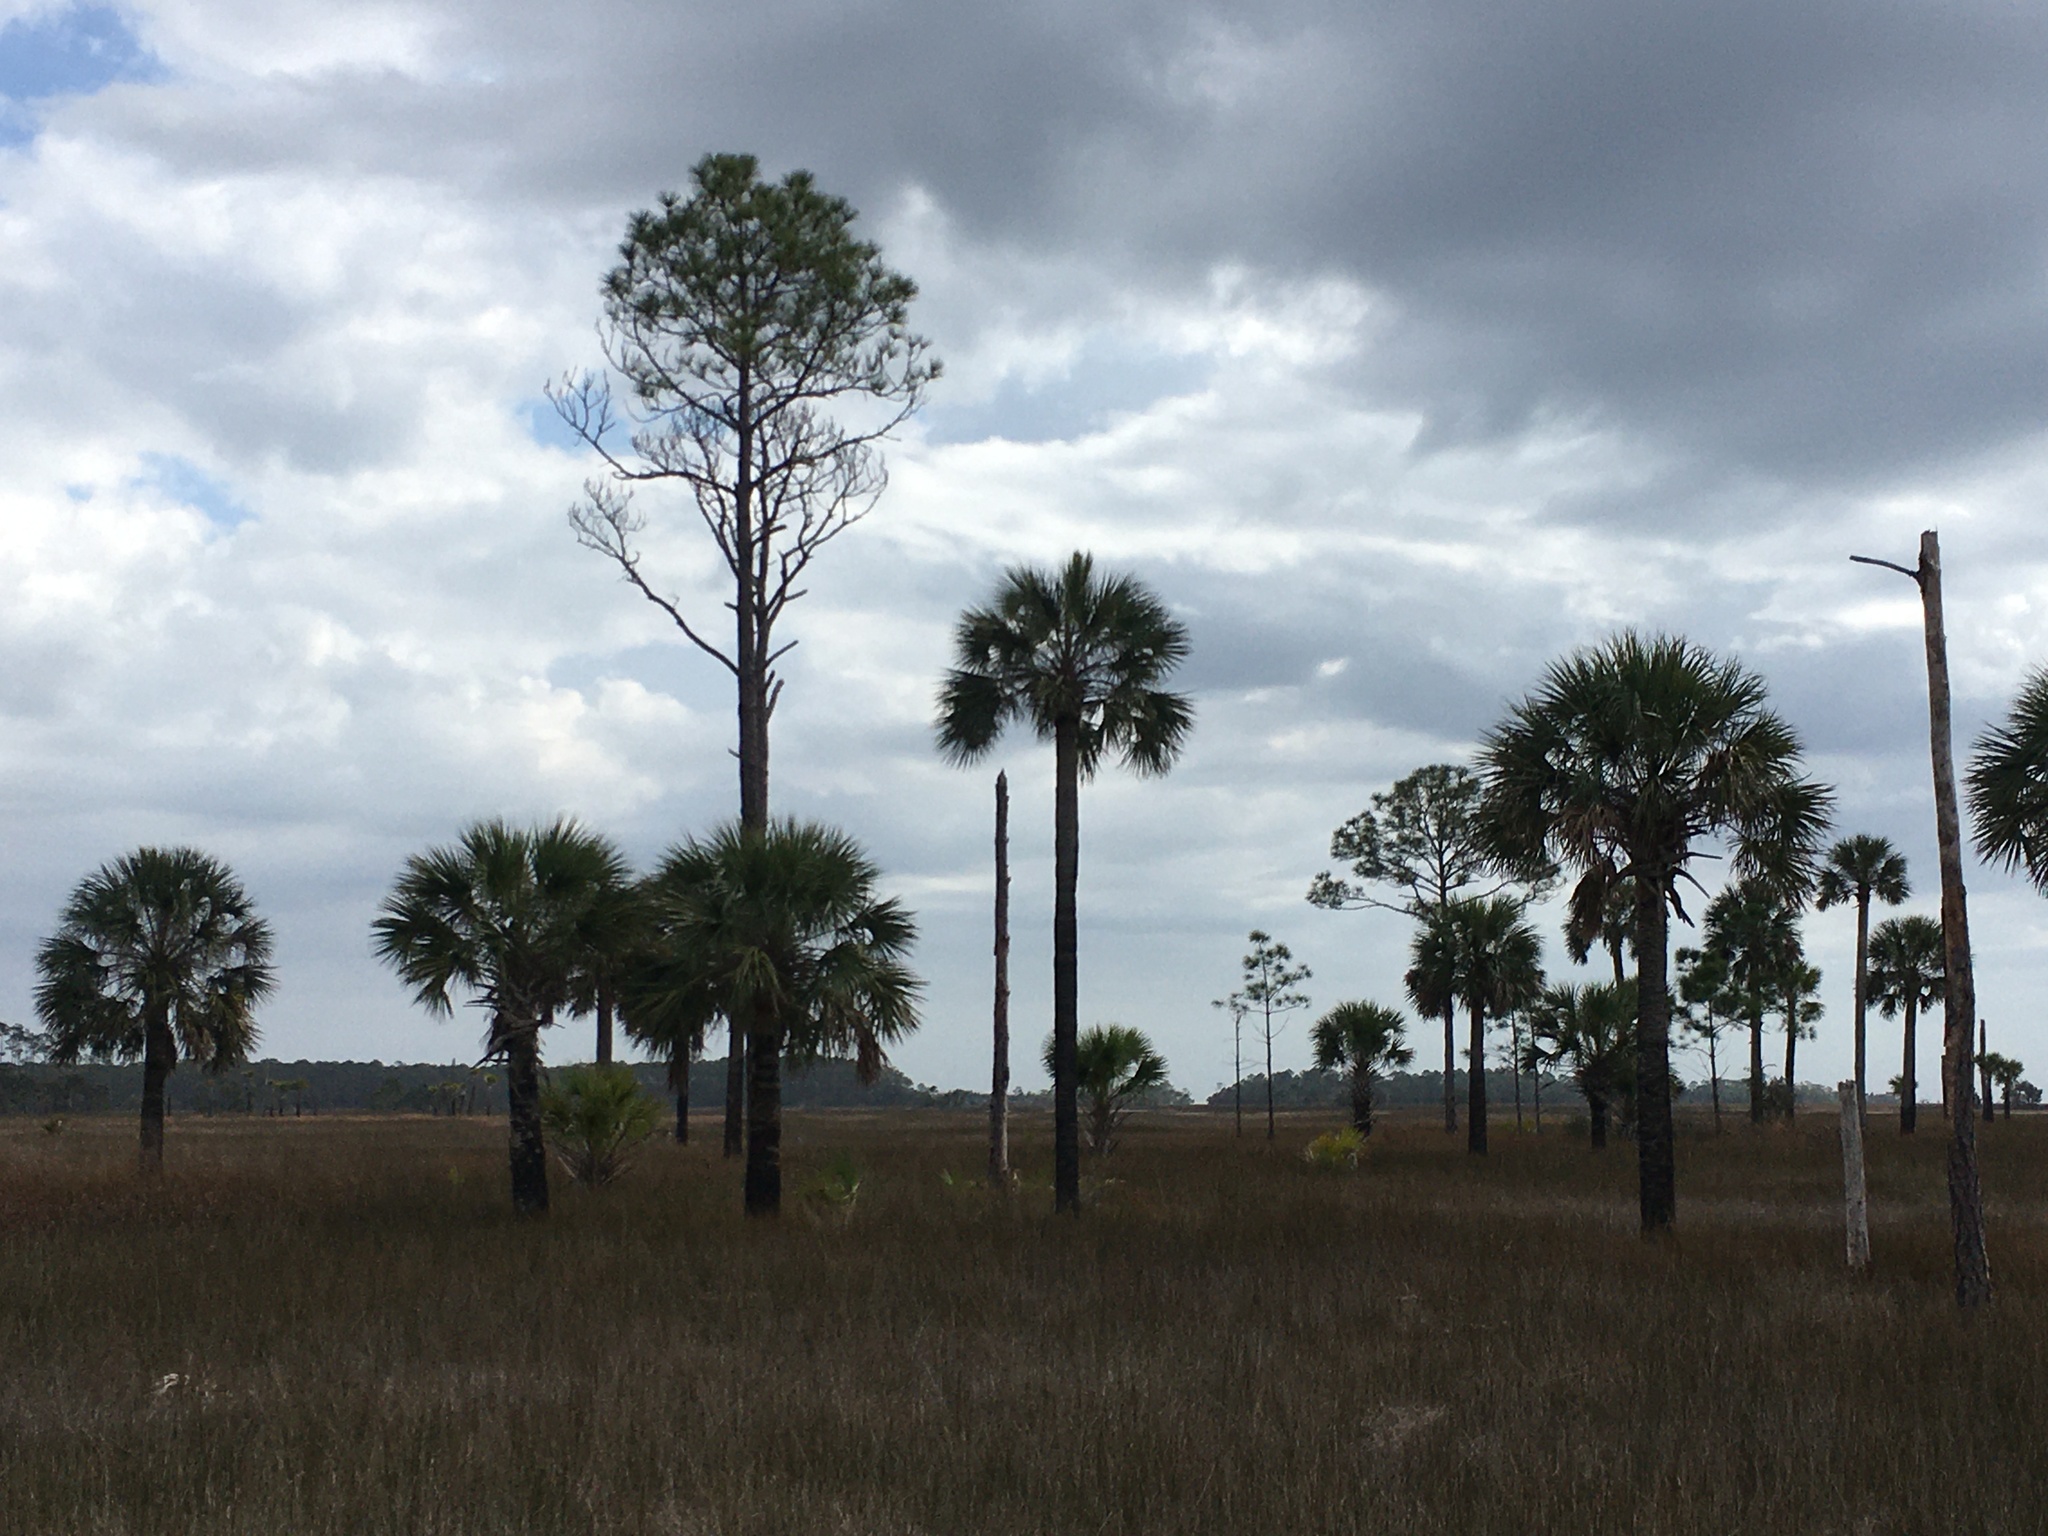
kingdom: Plantae
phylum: Tracheophyta
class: Liliopsida
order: Arecales
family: Arecaceae
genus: Sabal
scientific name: Sabal palmetto
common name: Blue palmetto
